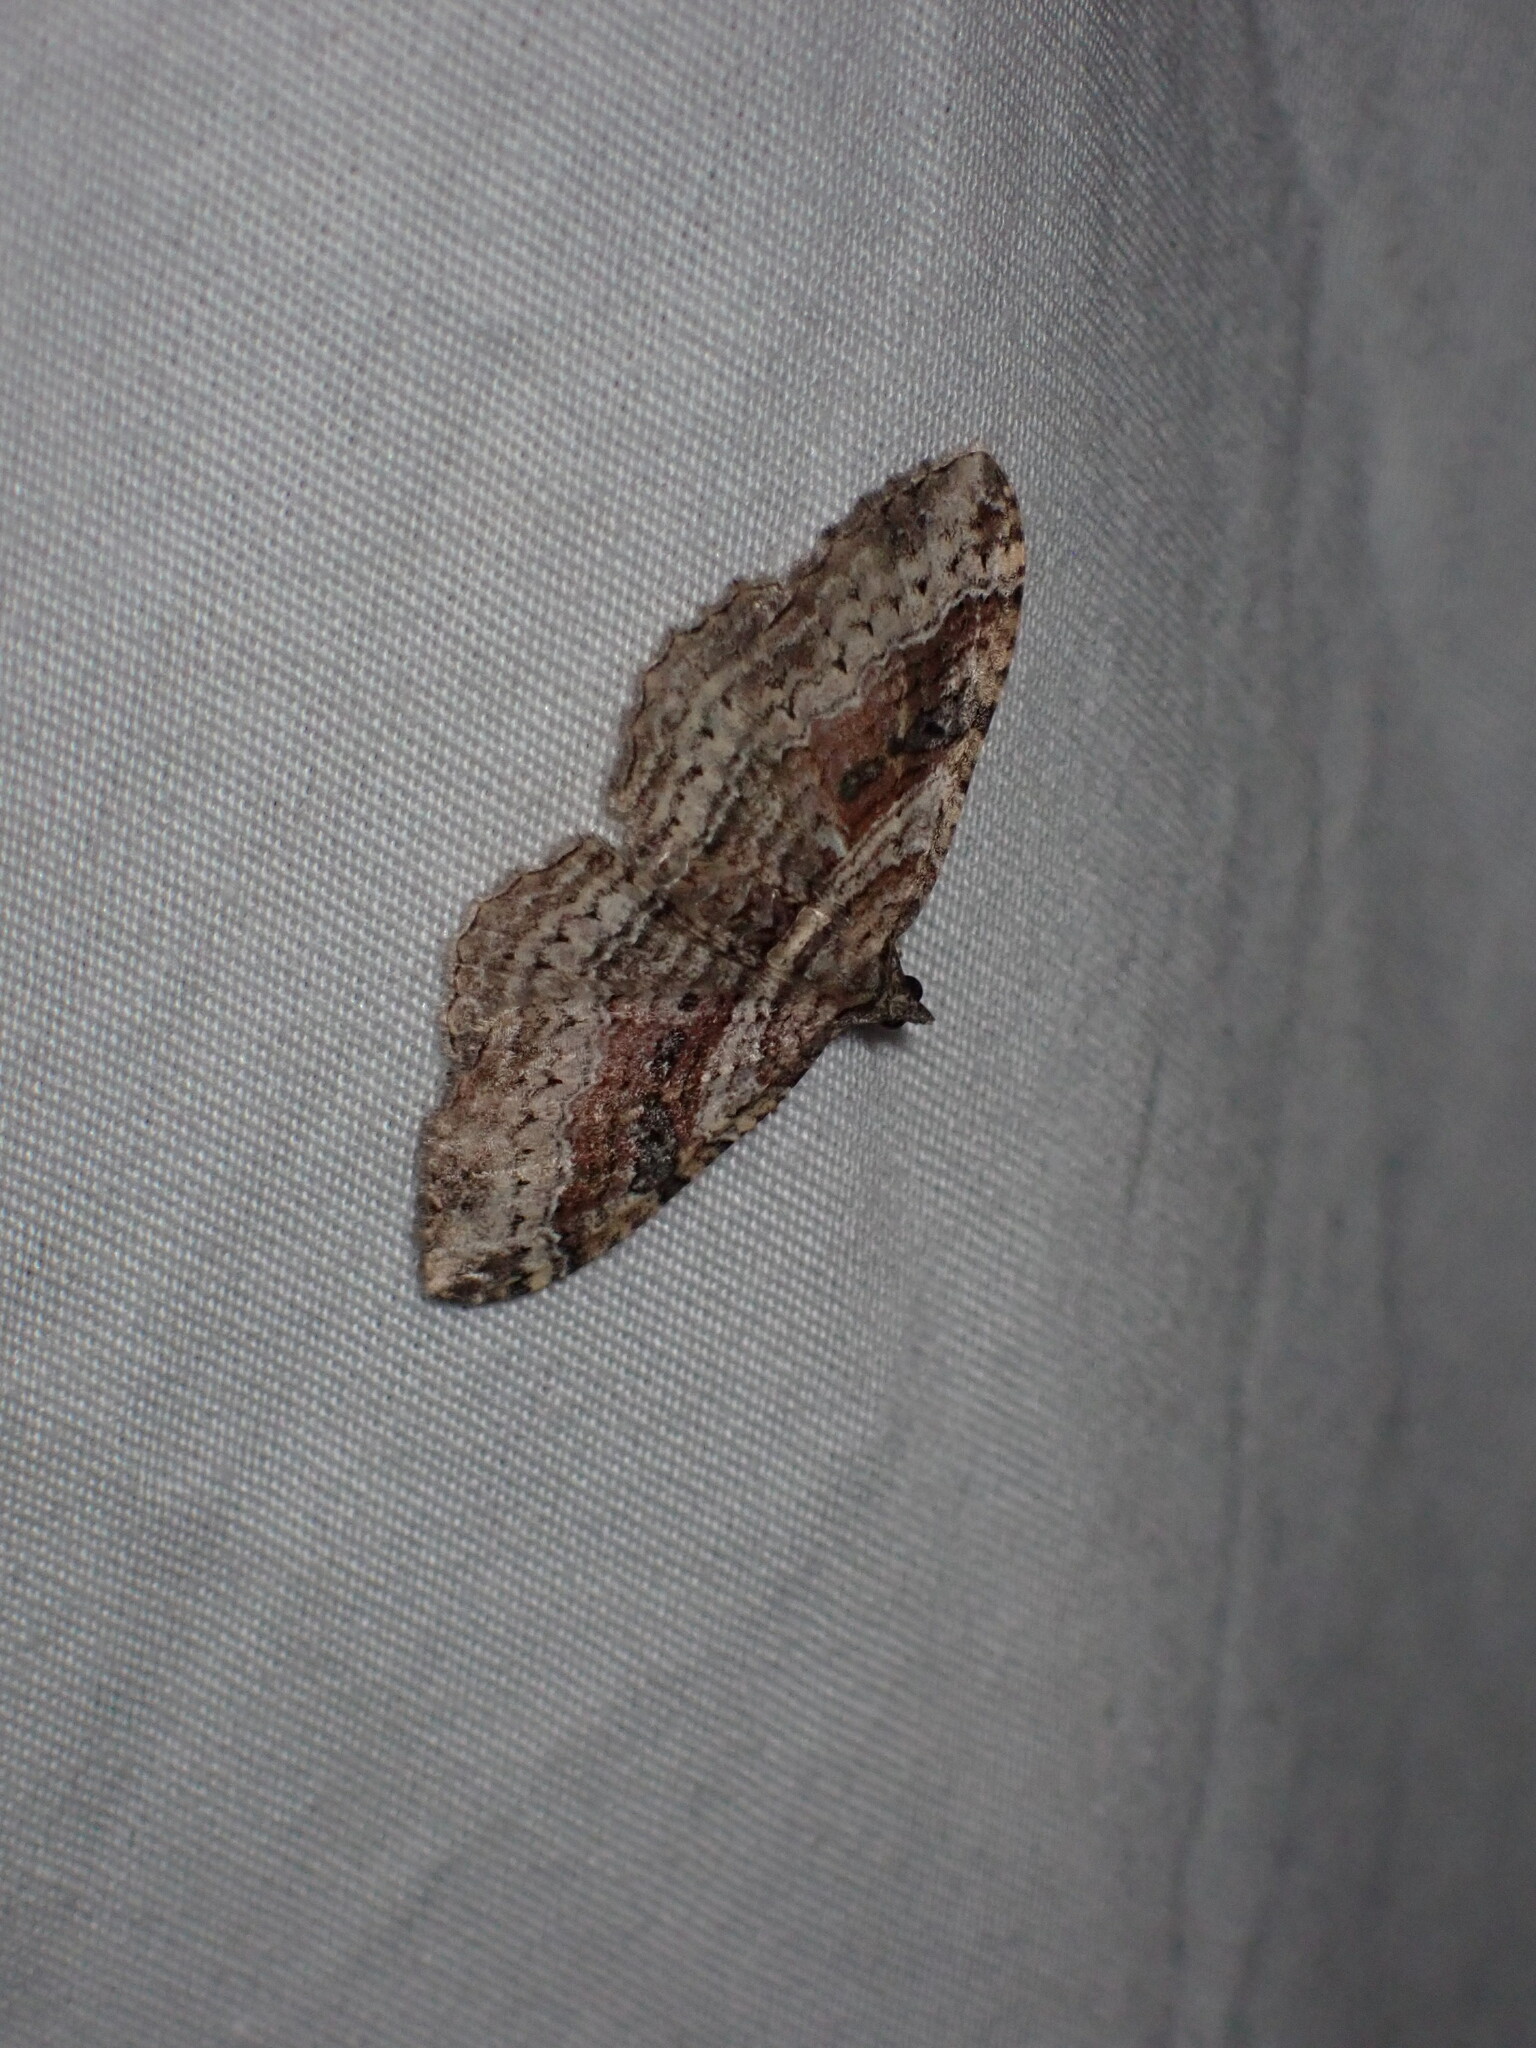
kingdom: Animalia
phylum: Arthropoda
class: Insecta
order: Lepidoptera
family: Geometridae
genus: Costaconvexa
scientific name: Costaconvexa centrostrigaria
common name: Bent-line carpet
